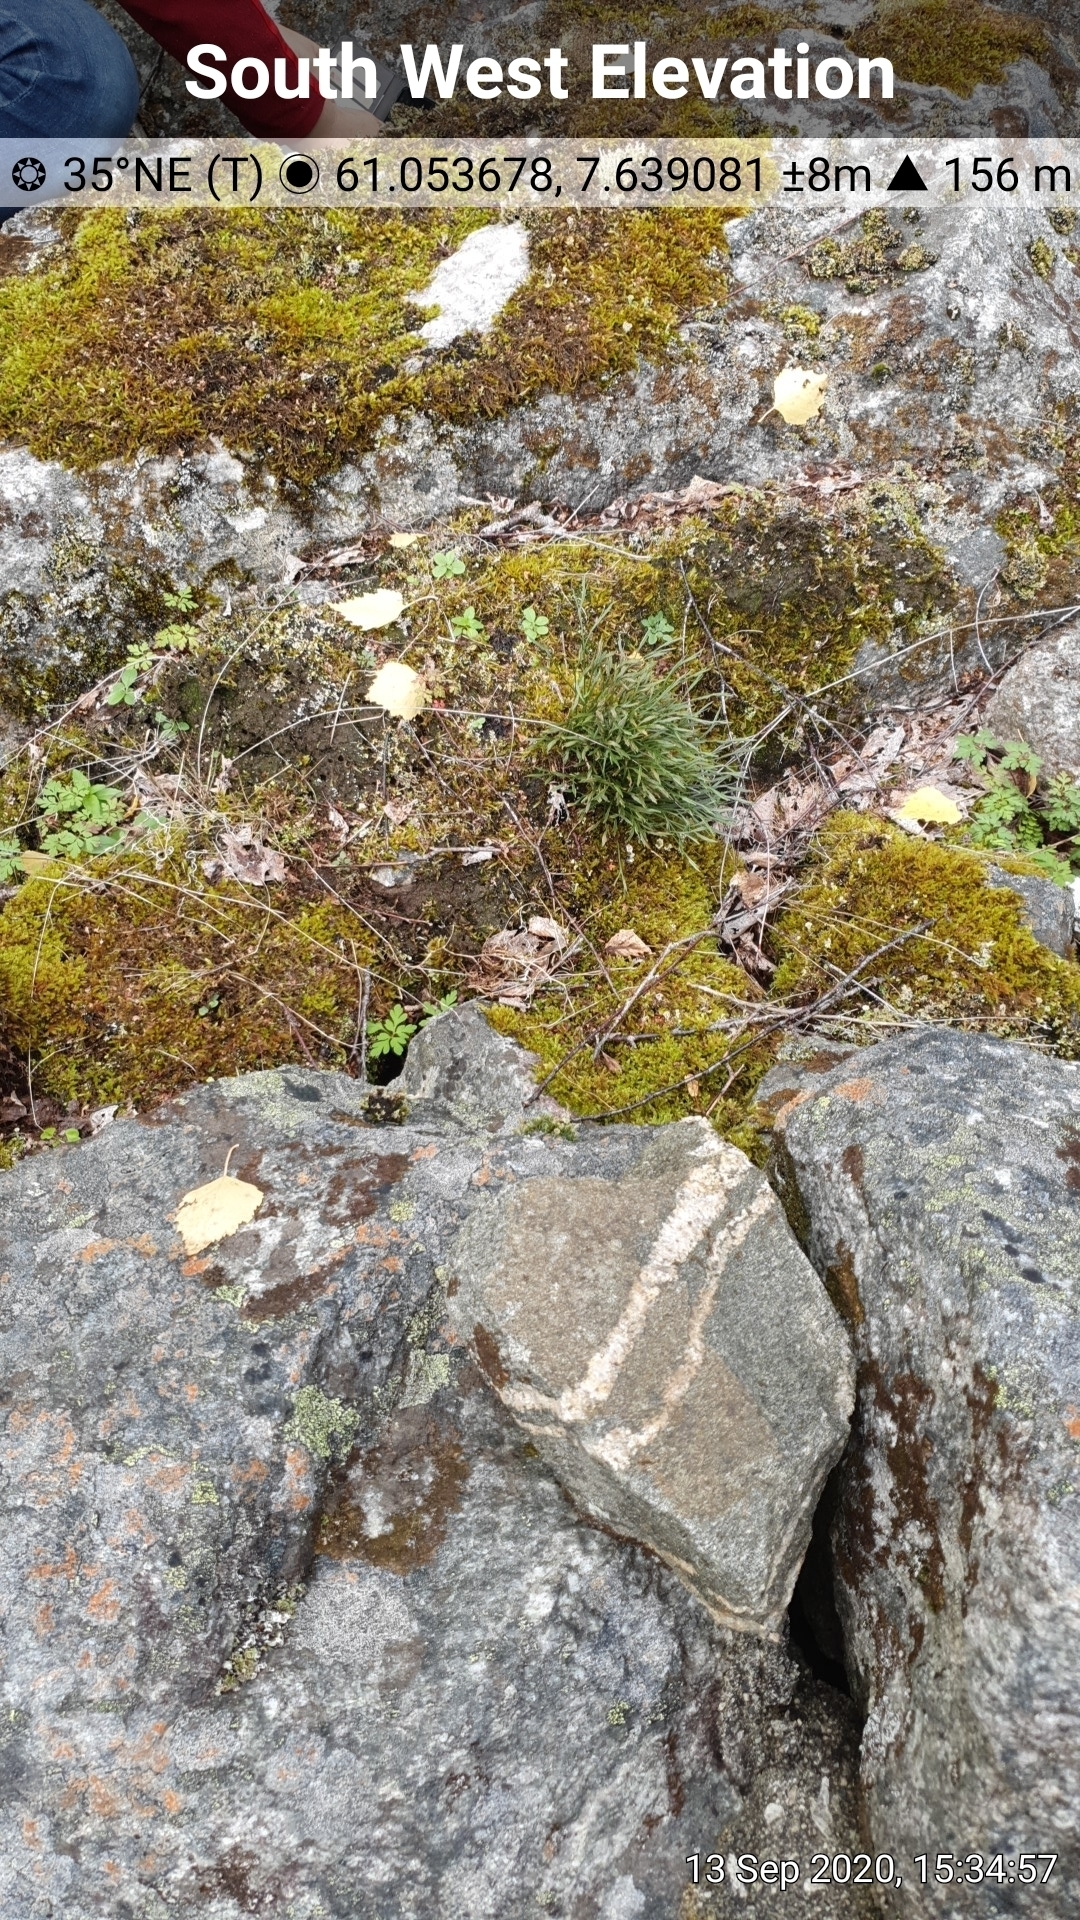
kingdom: Plantae
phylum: Tracheophyta
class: Polypodiopsida
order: Polypodiales
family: Aspleniaceae
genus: Asplenium
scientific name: Asplenium septentrionale
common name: Forked spleenwort
